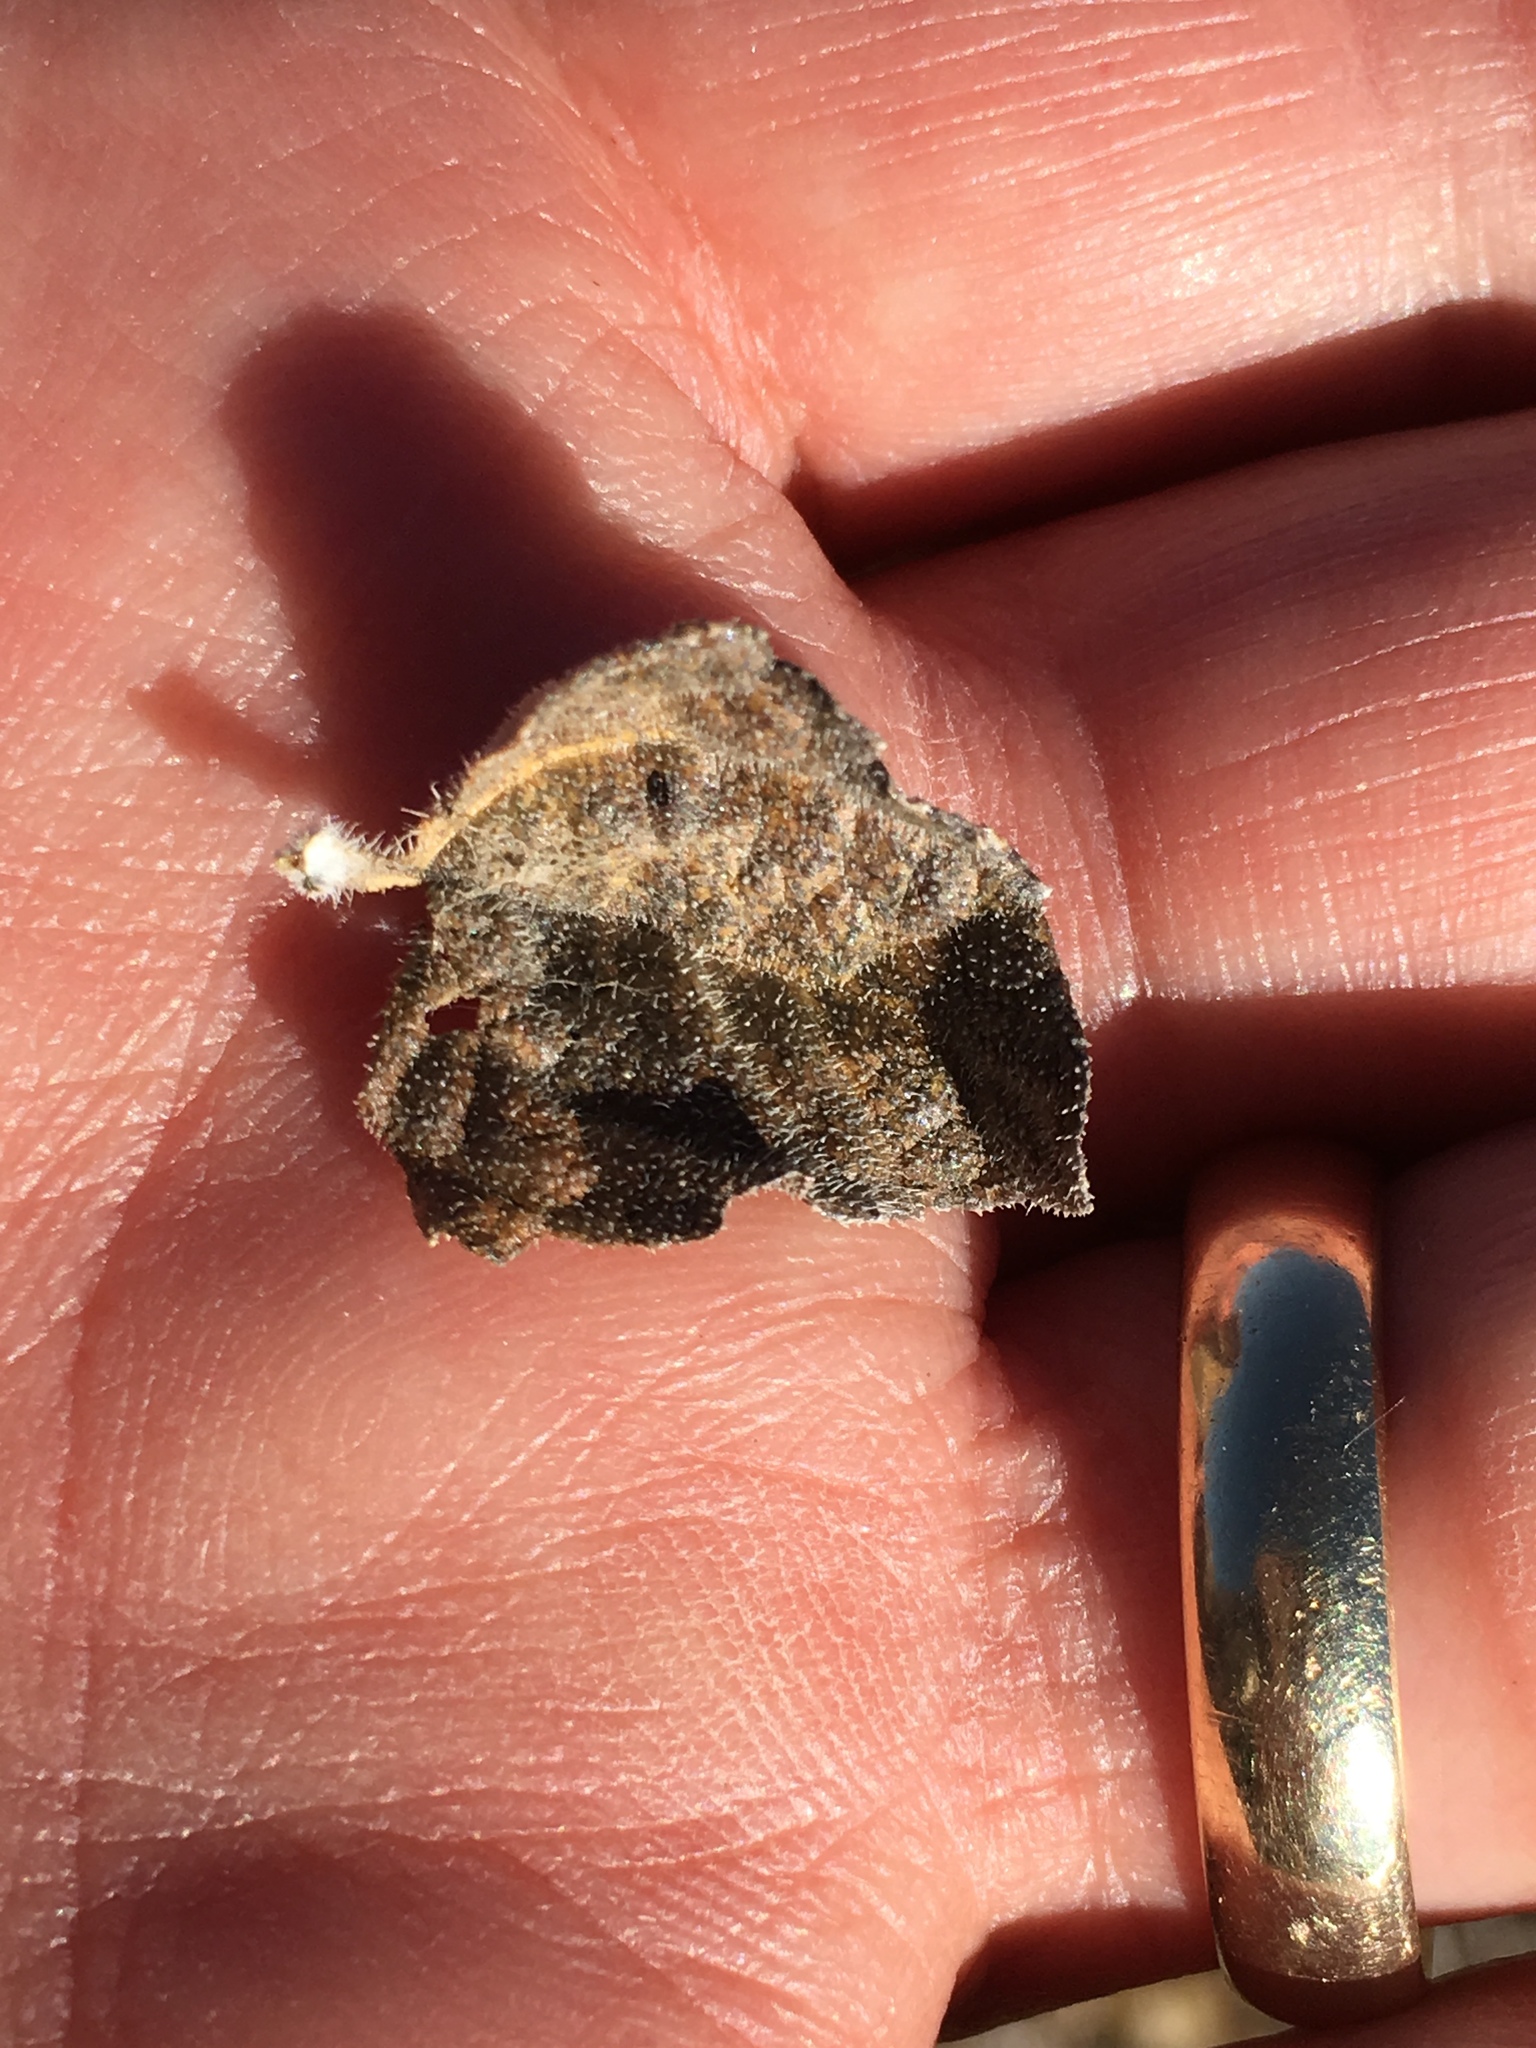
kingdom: Plantae
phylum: Tracheophyta
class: Magnoliopsida
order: Asterales
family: Asteraceae
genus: Bebbia
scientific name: Bebbia juncea
